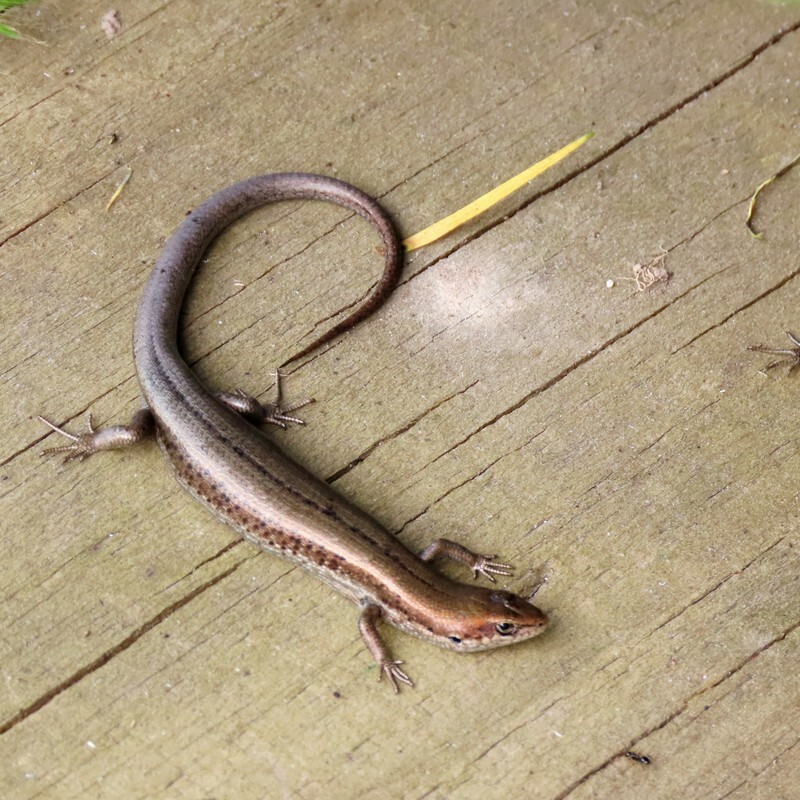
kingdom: Animalia
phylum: Chordata
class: Squamata
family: Scincidae
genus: Pseudemoia
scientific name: Pseudemoia entrecasteauxii
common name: Entrecasteaux's skink
